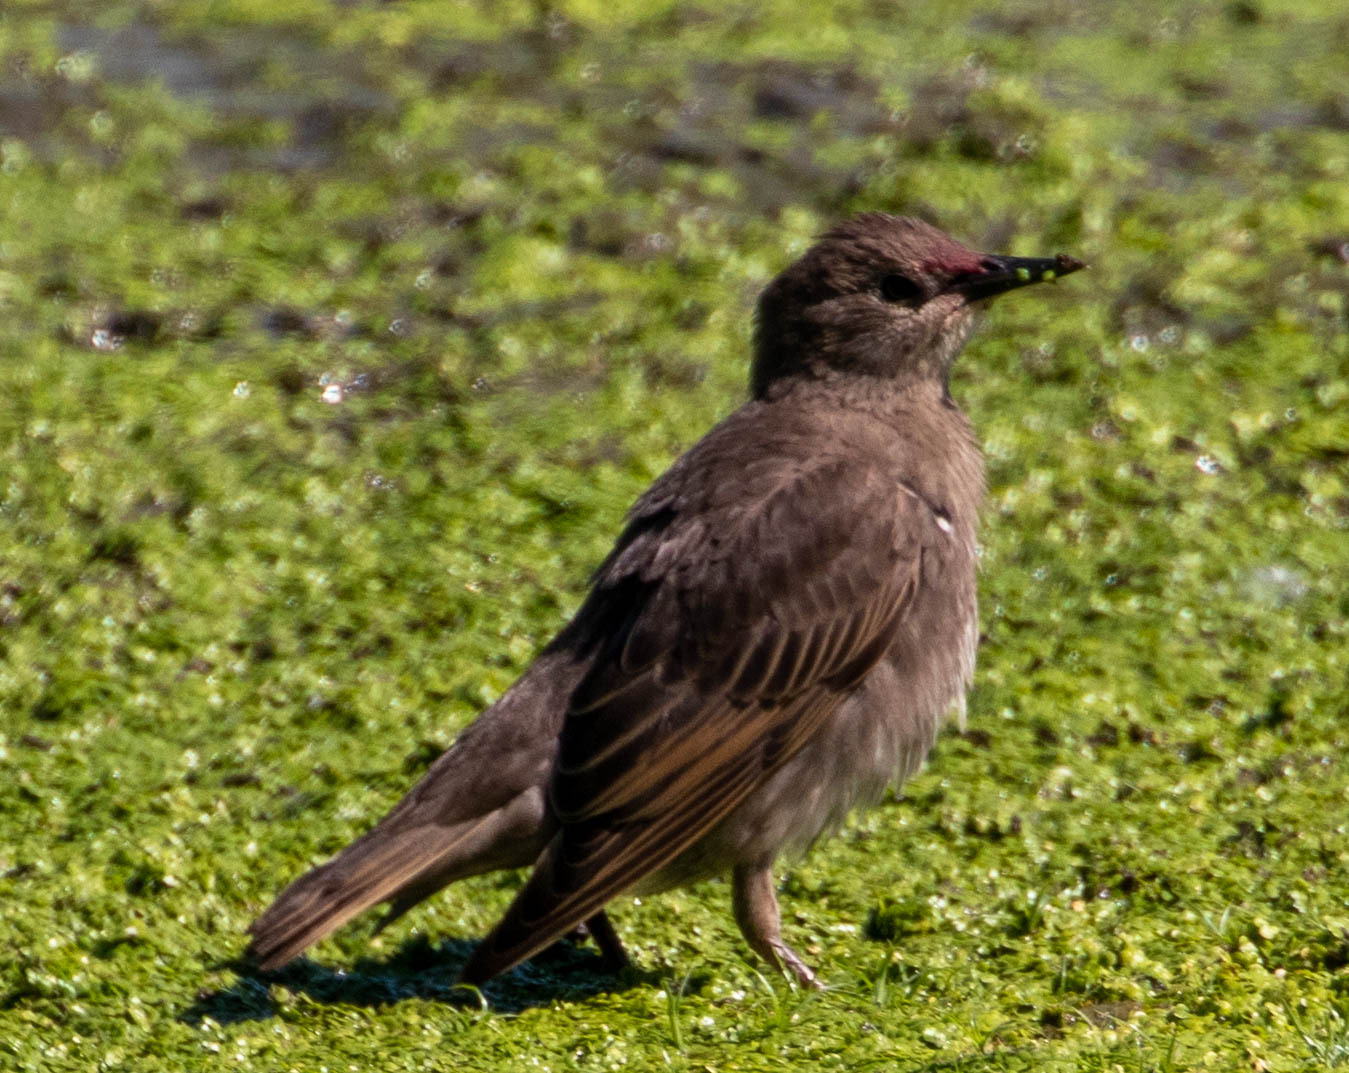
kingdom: Animalia
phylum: Chordata
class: Aves
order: Passeriformes
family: Sturnidae
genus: Sturnus
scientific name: Sturnus vulgaris
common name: Common starling
